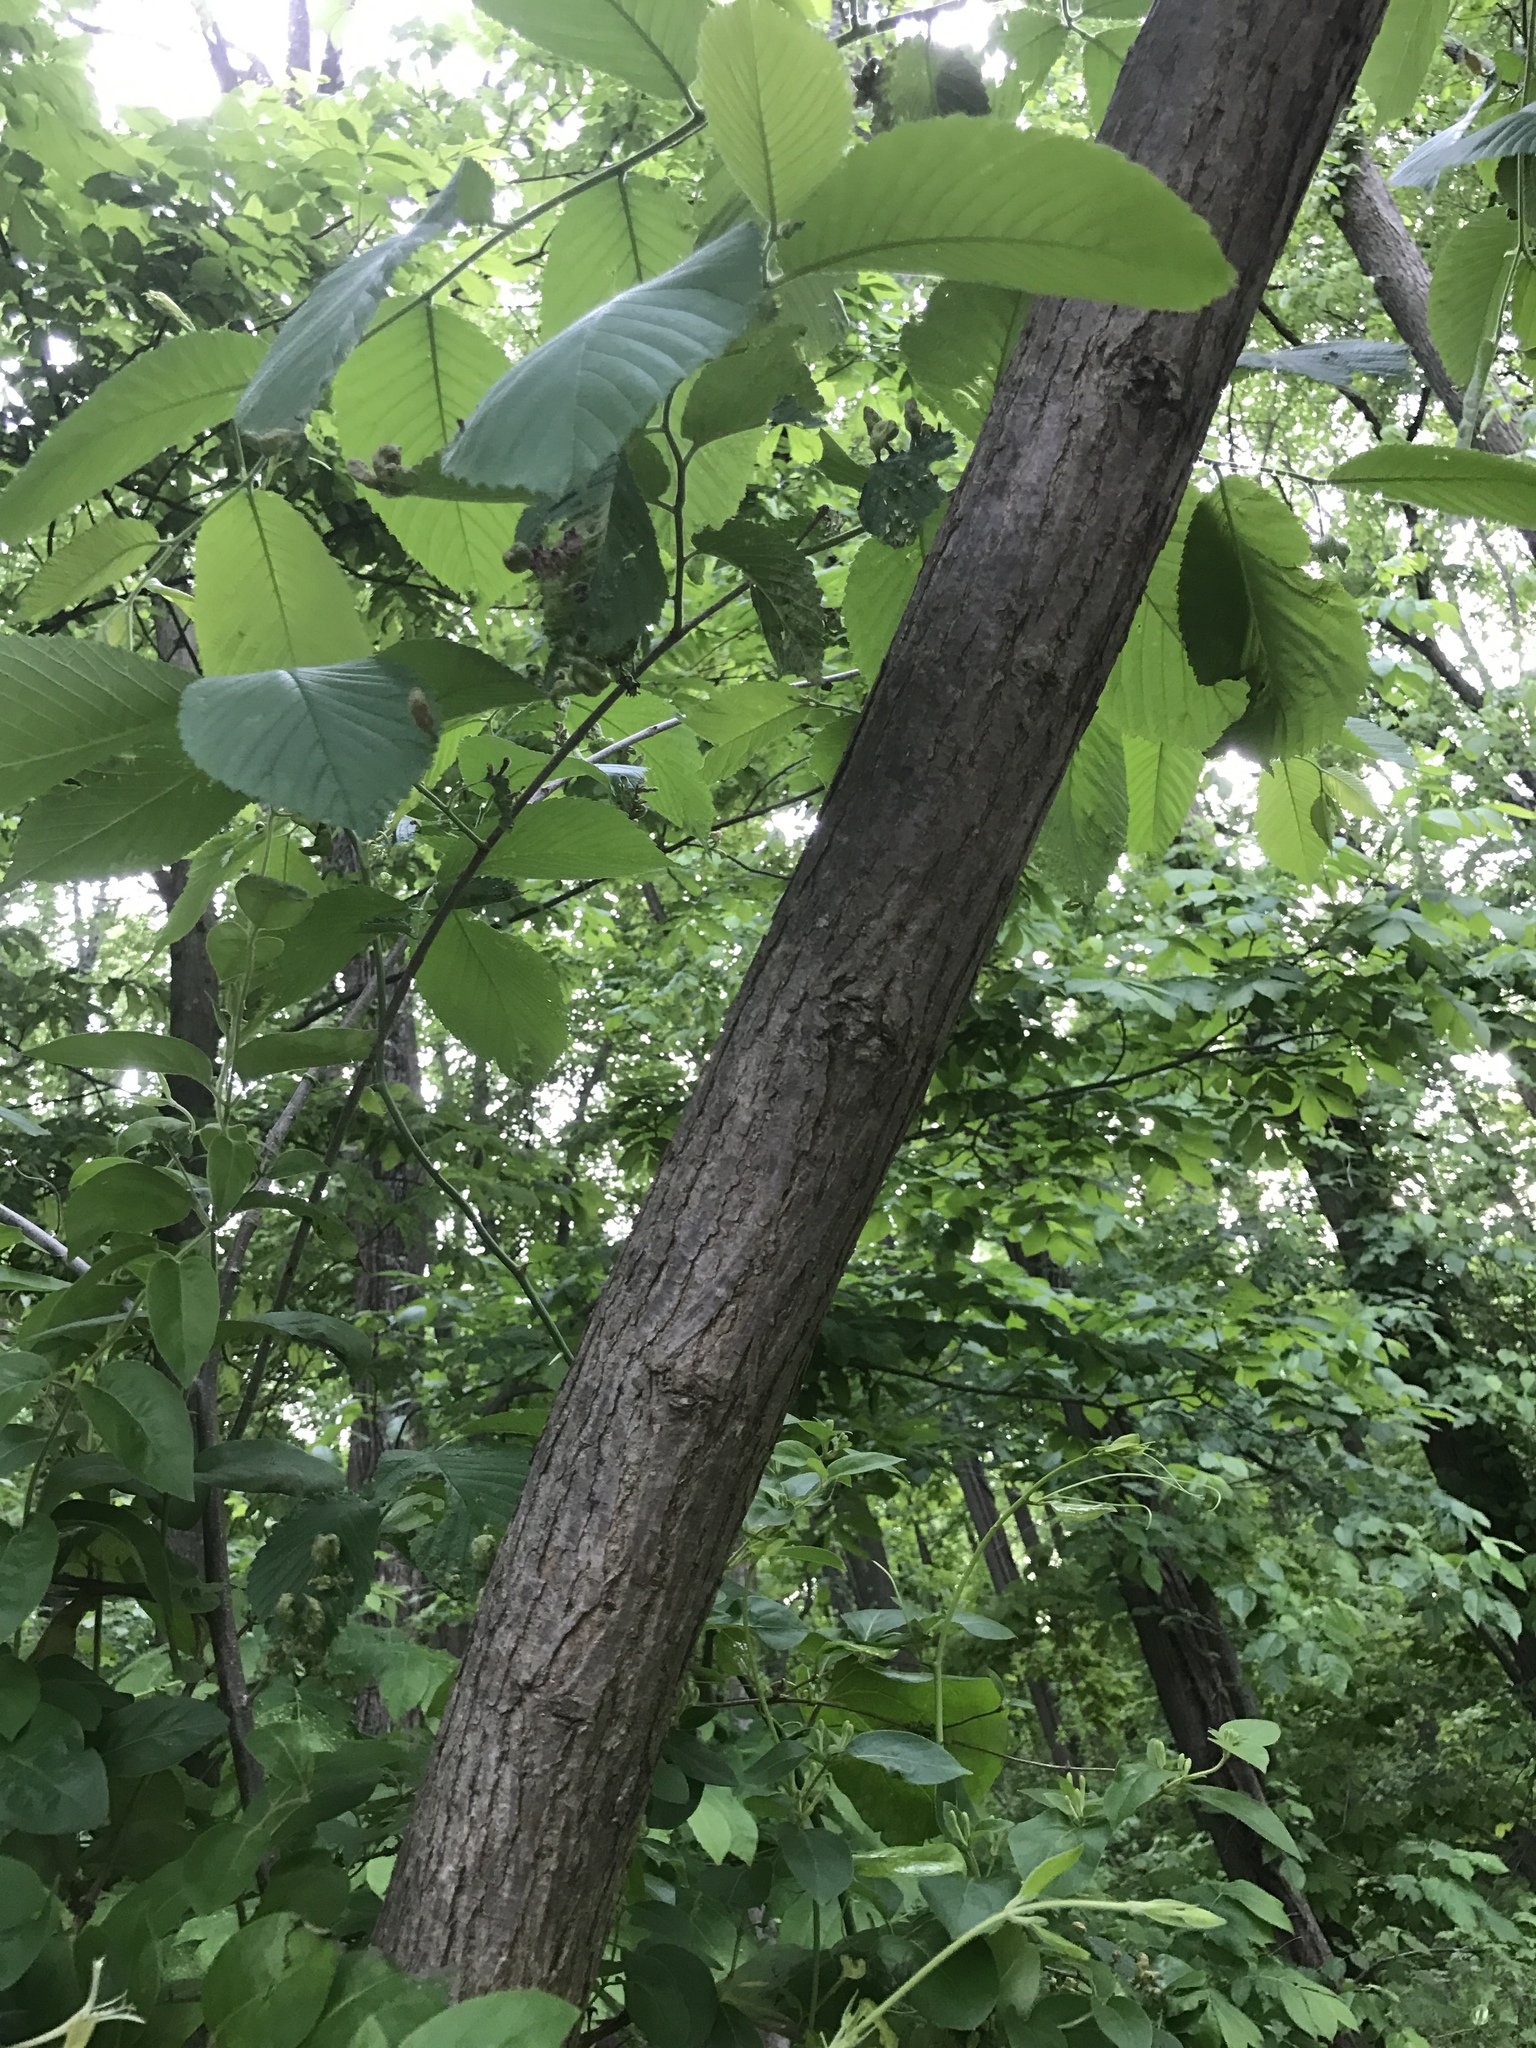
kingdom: Plantae
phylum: Tracheophyta
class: Magnoliopsida
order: Rosales
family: Ulmaceae
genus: Ulmus
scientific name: Ulmus rubra
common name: Slippery elm
